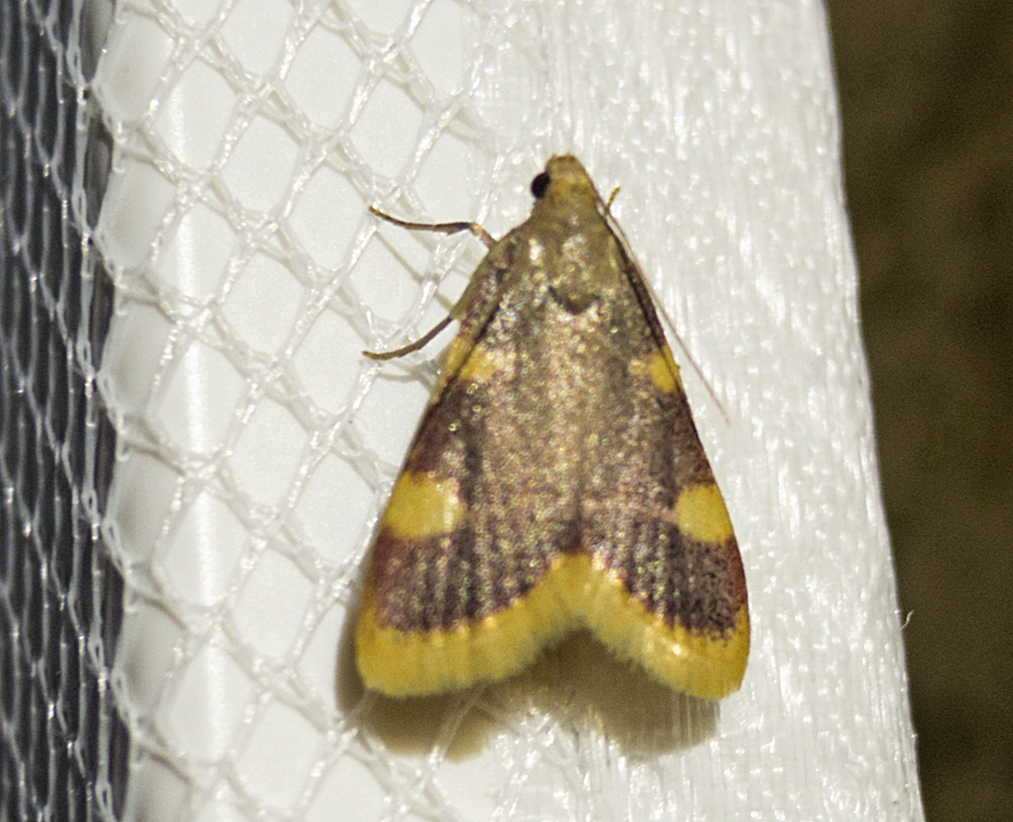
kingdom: Animalia
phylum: Arthropoda
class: Insecta
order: Lepidoptera
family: Pyralidae
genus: Hypsopygia
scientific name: Hypsopygia costalis
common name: Gold triangle
